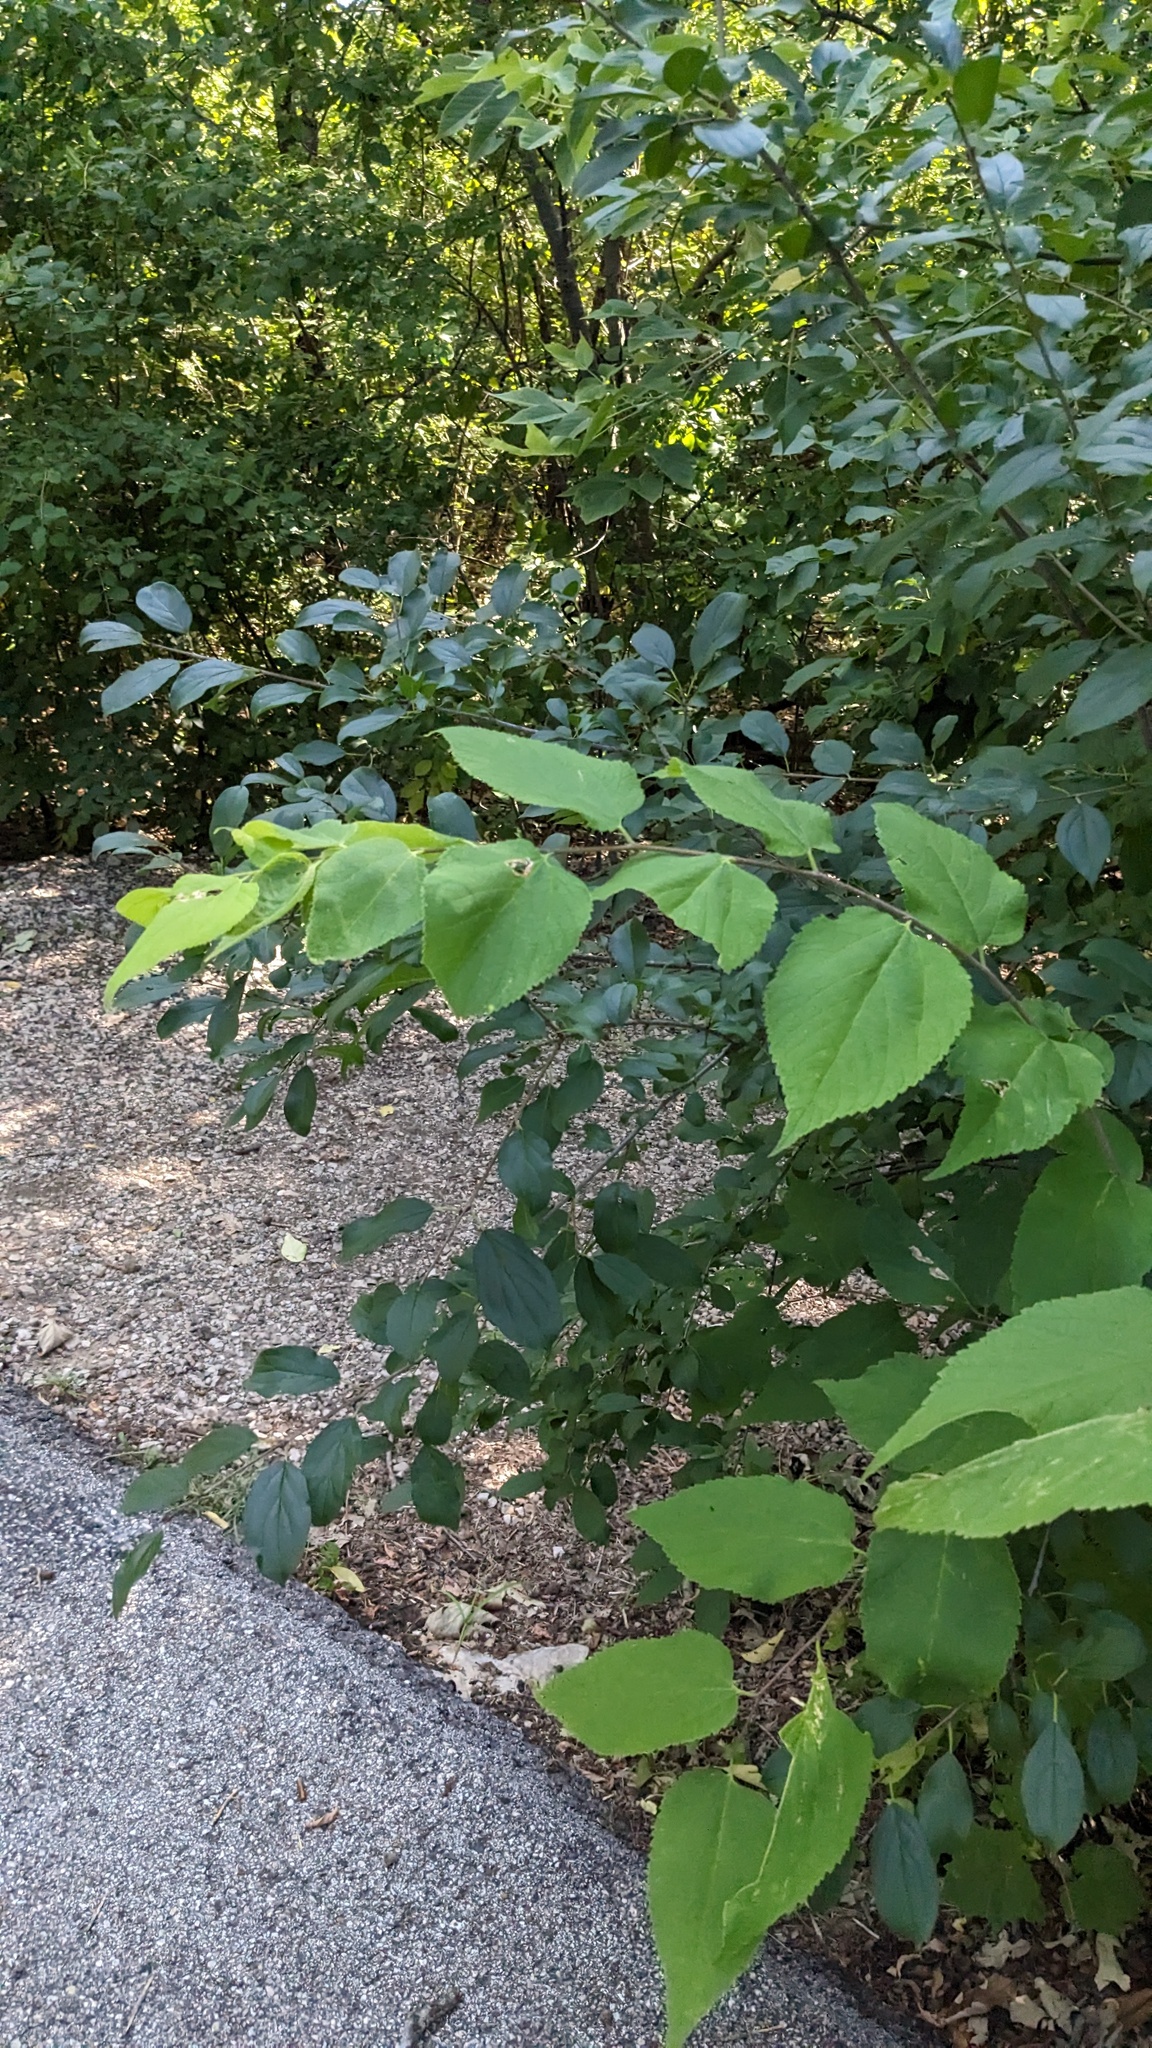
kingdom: Plantae
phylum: Tracheophyta
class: Magnoliopsida
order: Rosales
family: Cannabaceae
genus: Celtis
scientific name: Celtis occidentalis
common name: Common hackberry
